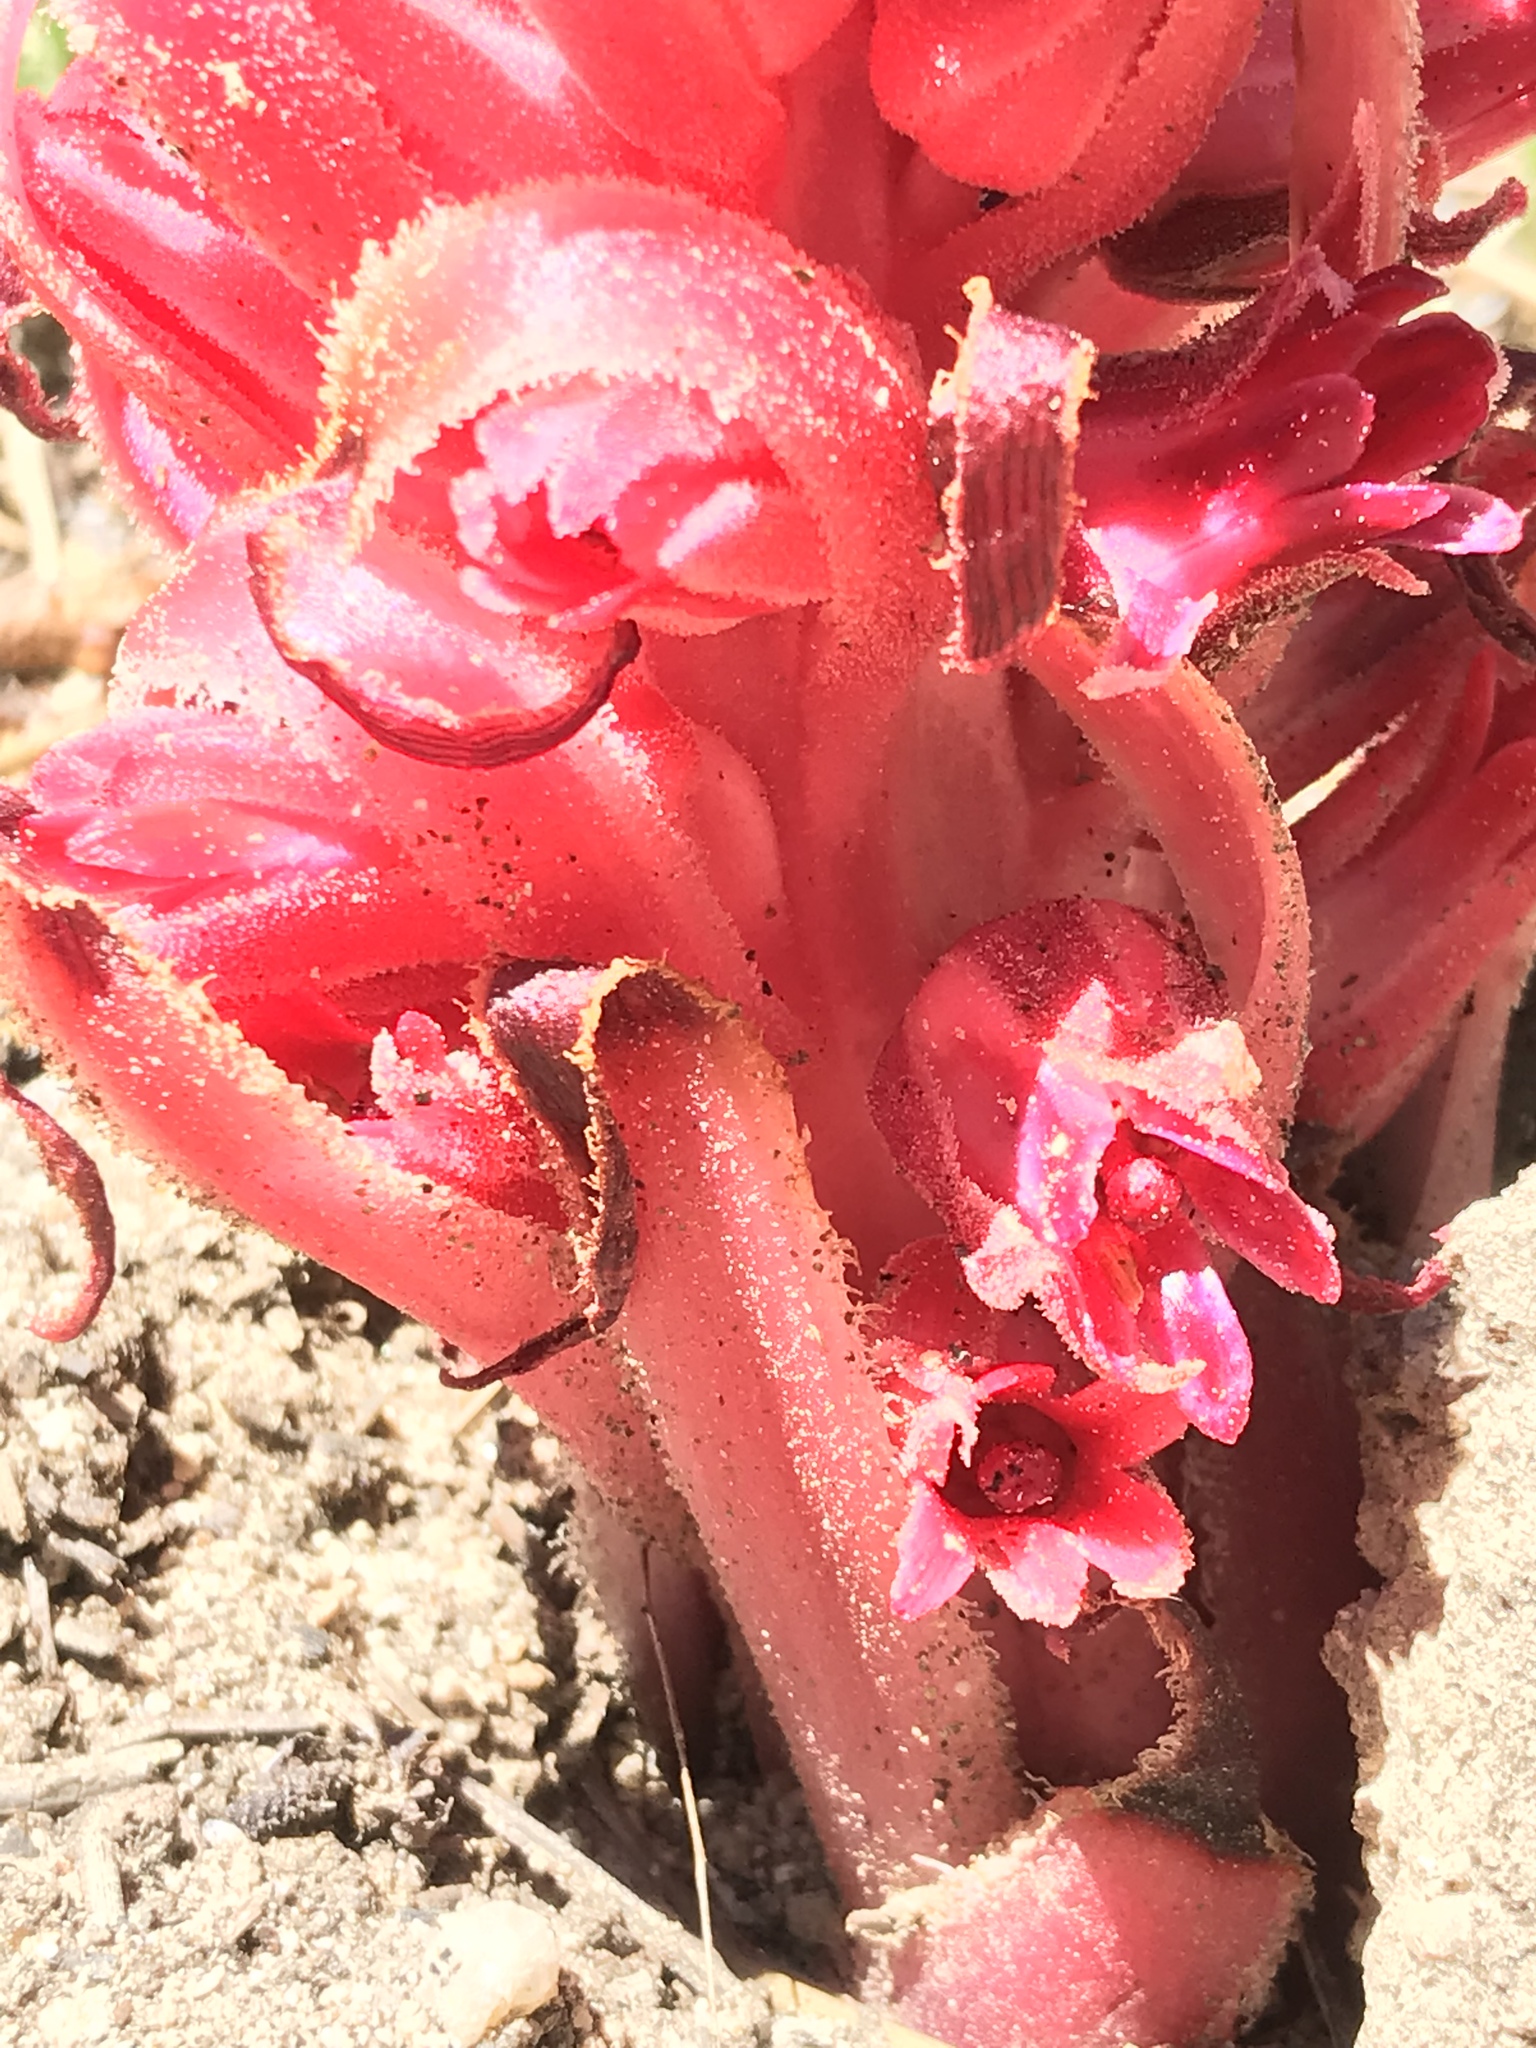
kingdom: Plantae
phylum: Tracheophyta
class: Magnoliopsida
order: Ericales
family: Ericaceae
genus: Sarcodes
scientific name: Sarcodes sanguinea
